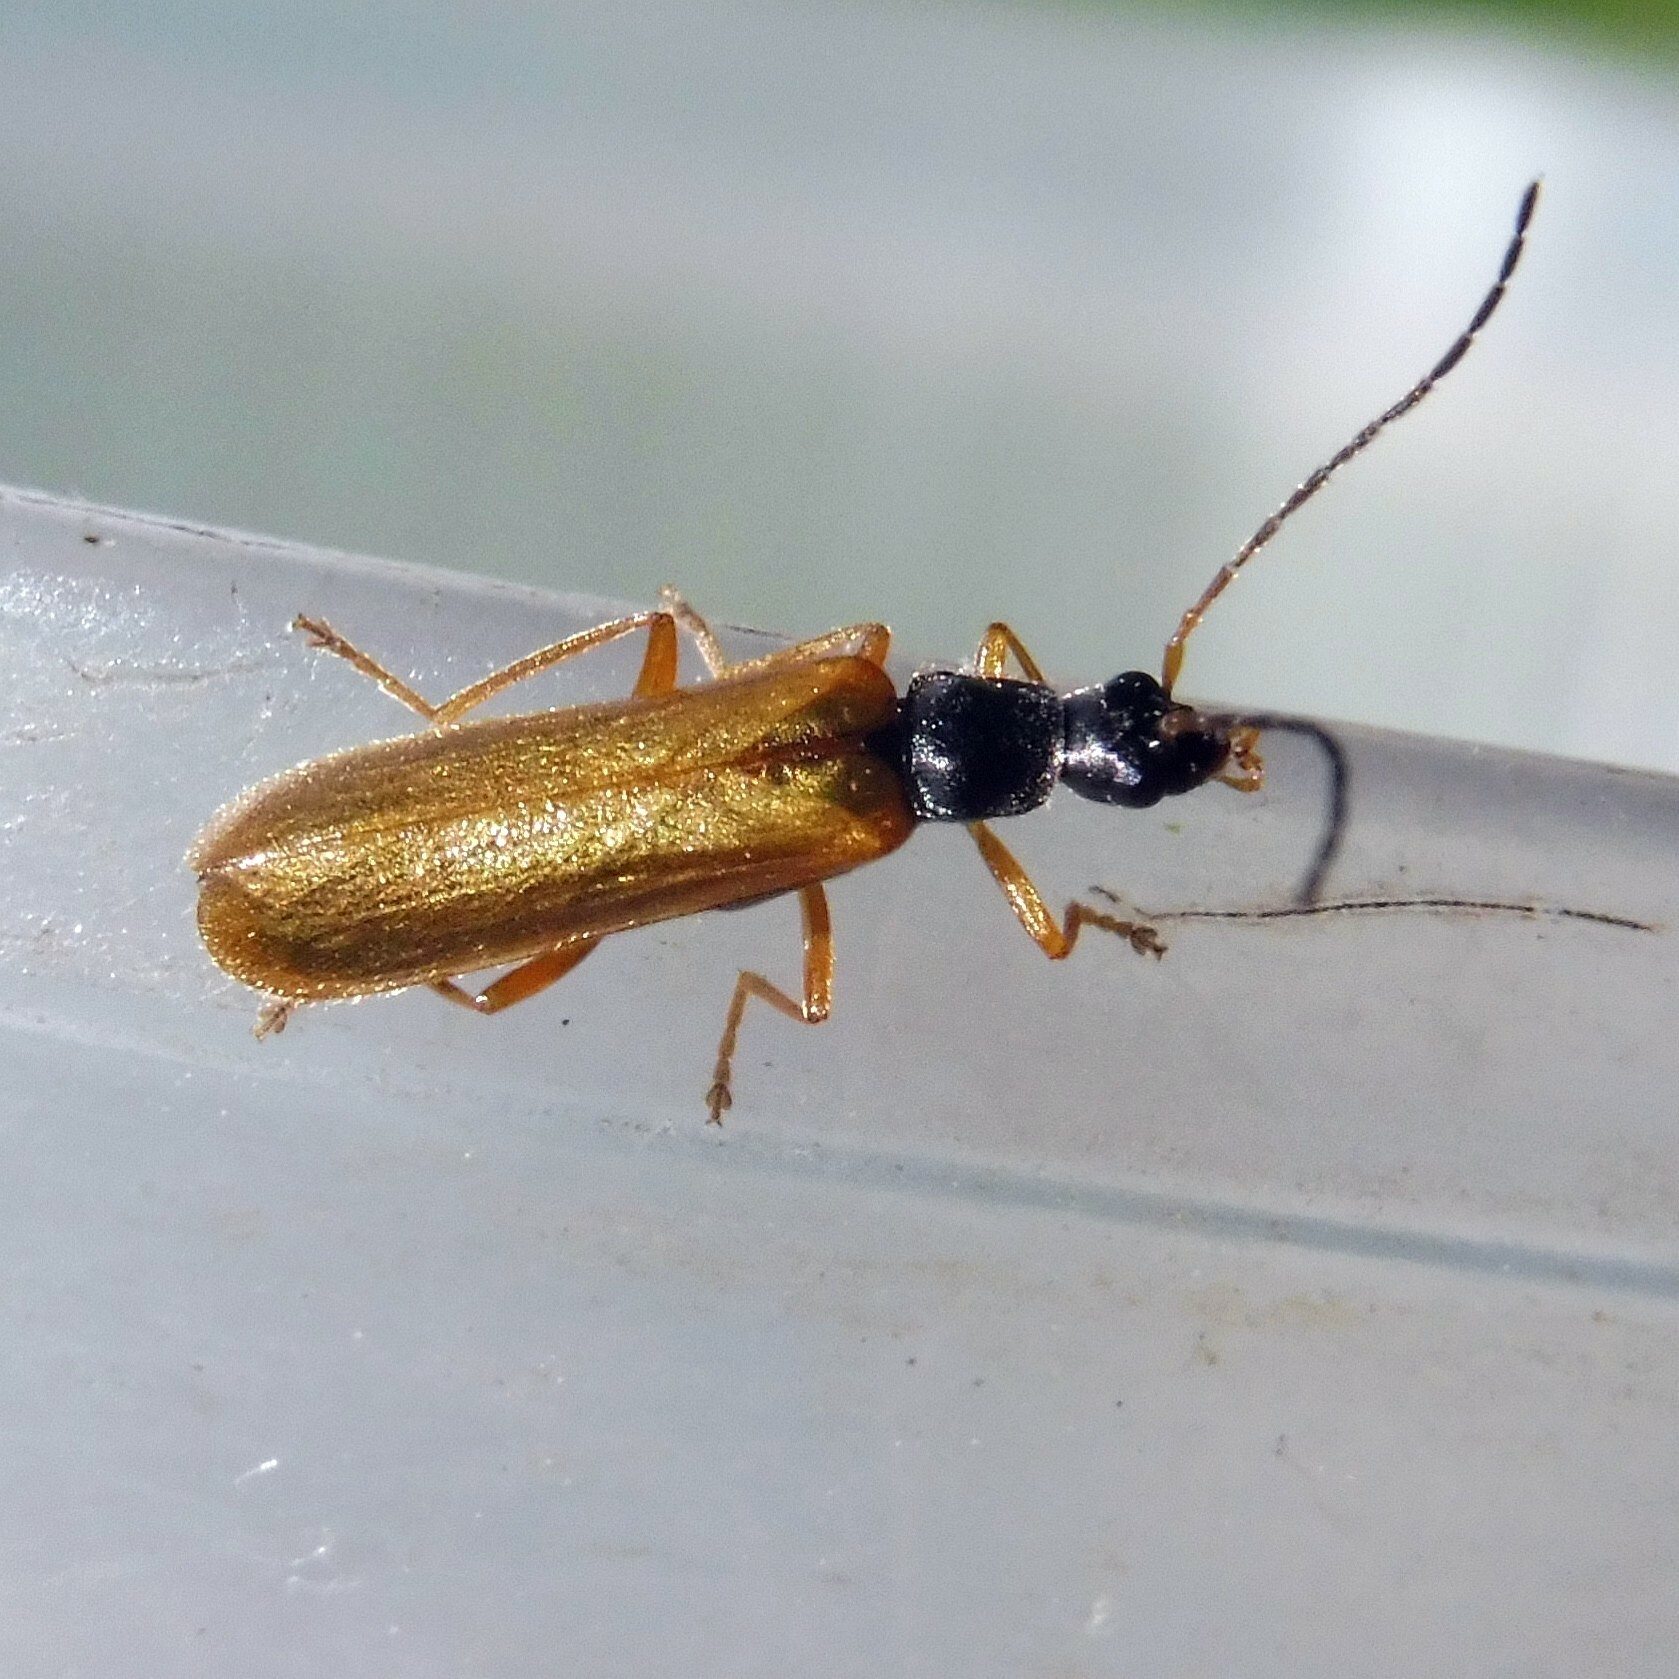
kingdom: Animalia
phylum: Arthropoda
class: Insecta
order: Coleoptera
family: Cantharidae
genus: Rhagonycha
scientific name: Rhagonycha lignosa
